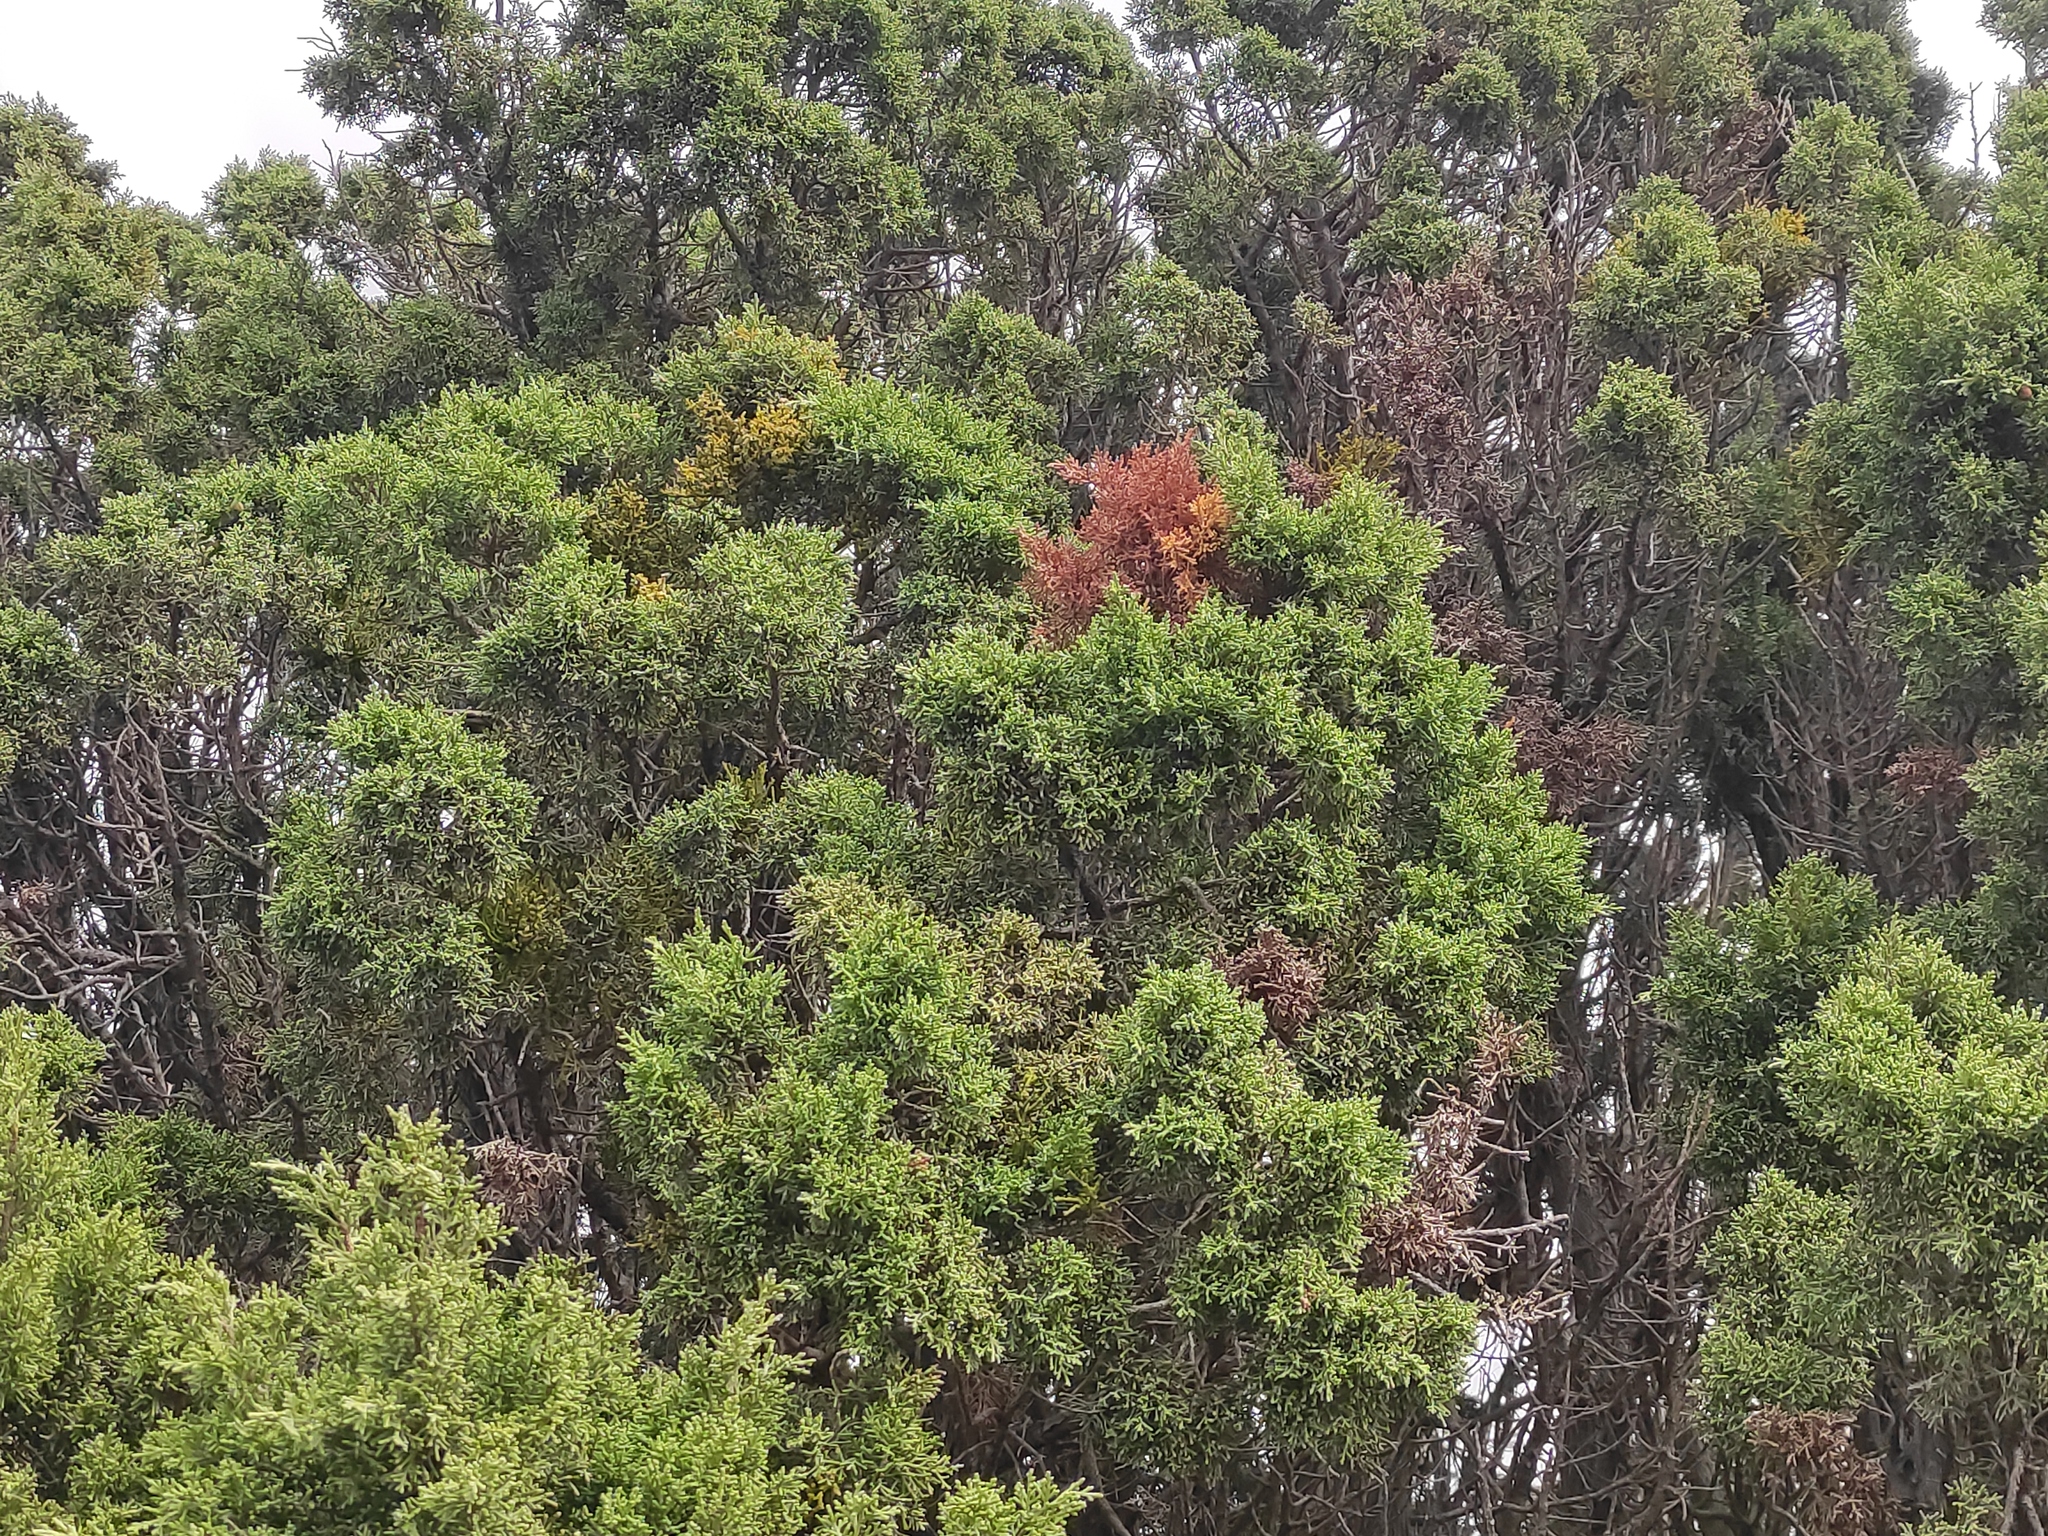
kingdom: Plantae
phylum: Tracheophyta
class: Magnoliopsida
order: Santalales
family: Viscaceae
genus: Arceuthobium
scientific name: Arceuthobium gambyi
